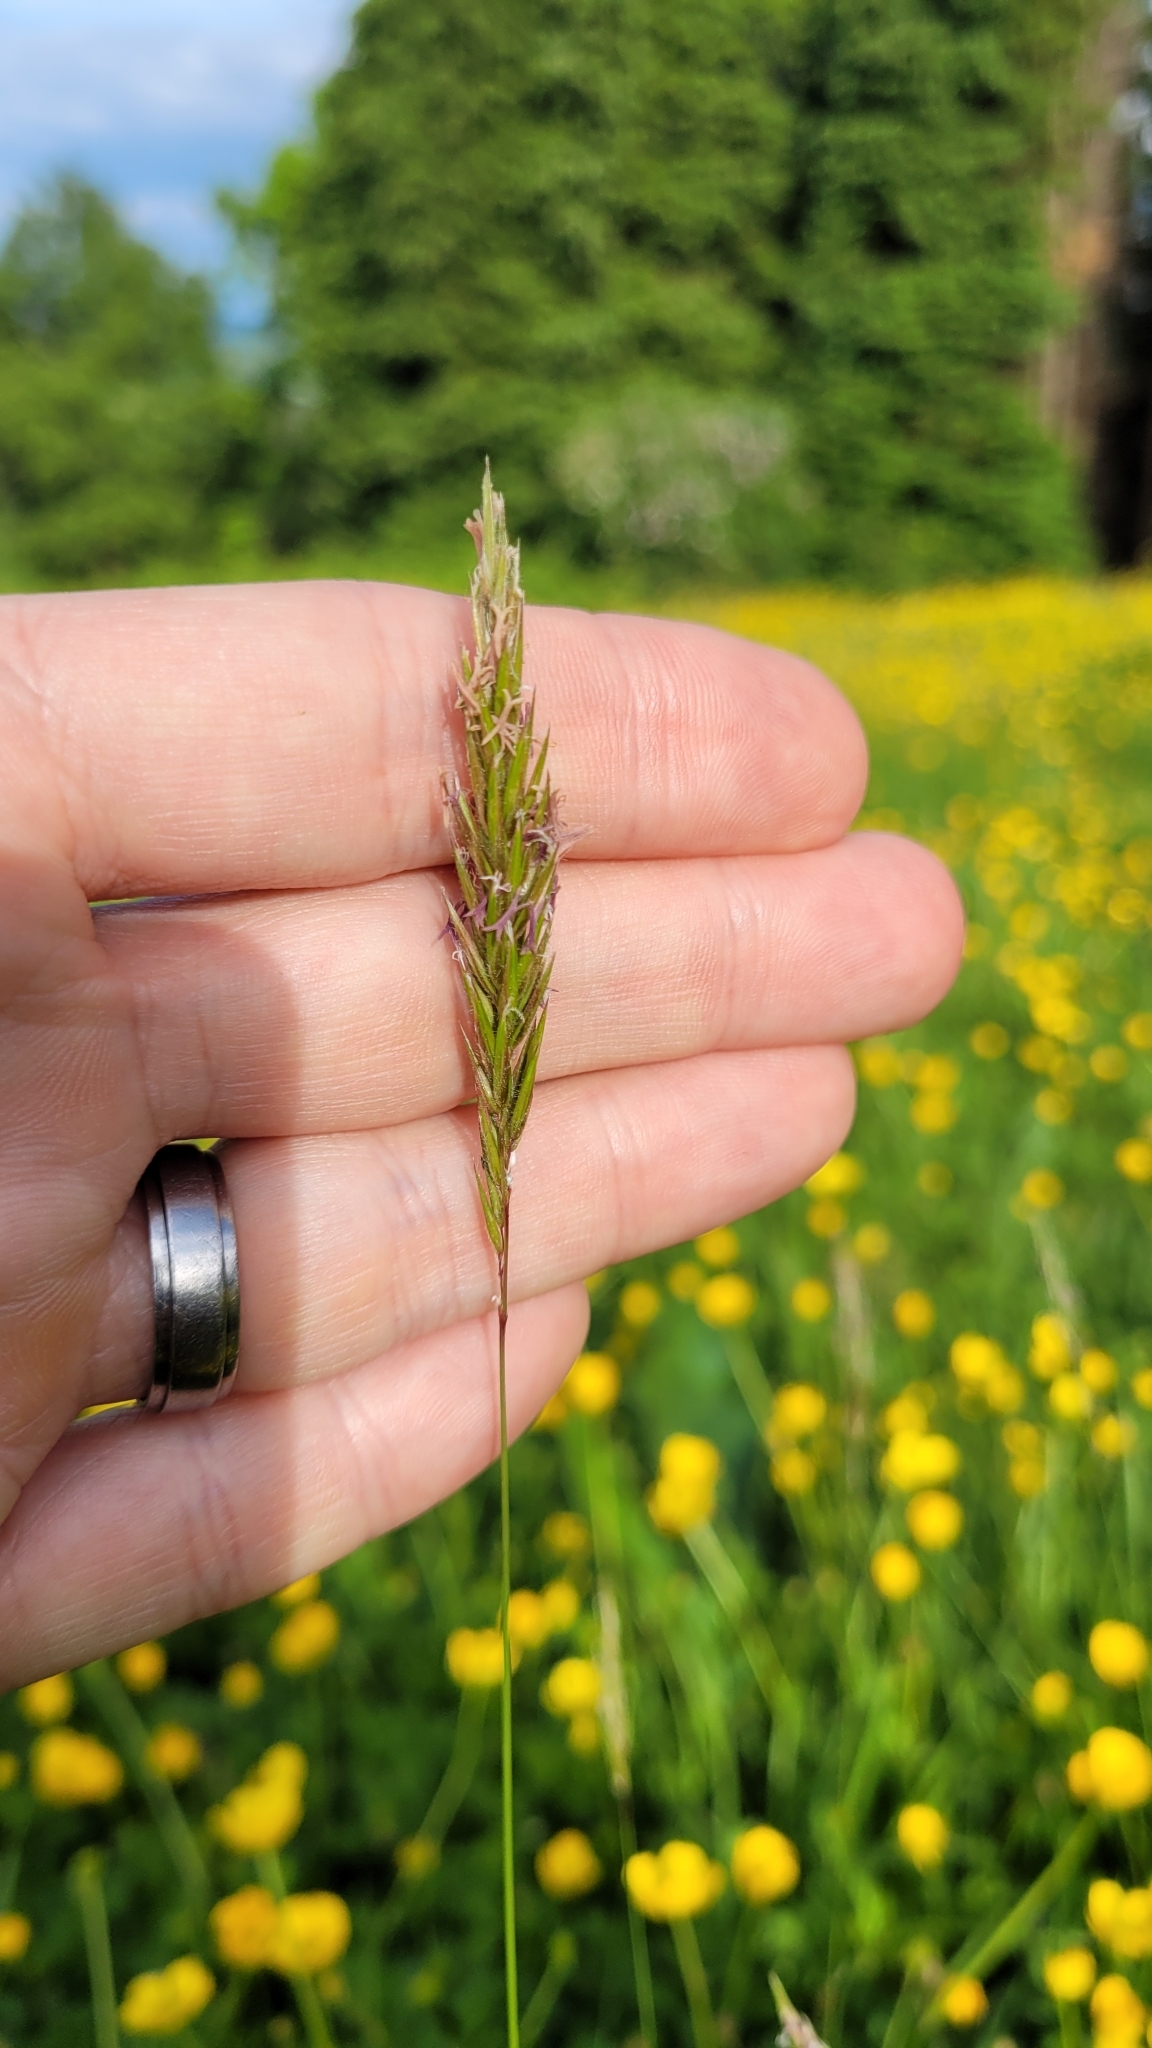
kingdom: Plantae
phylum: Tracheophyta
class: Liliopsida
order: Poales
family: Poaceae
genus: Anthoxanthum
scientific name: Anthoxanthum odoratum
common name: Sweet vernalgrass
